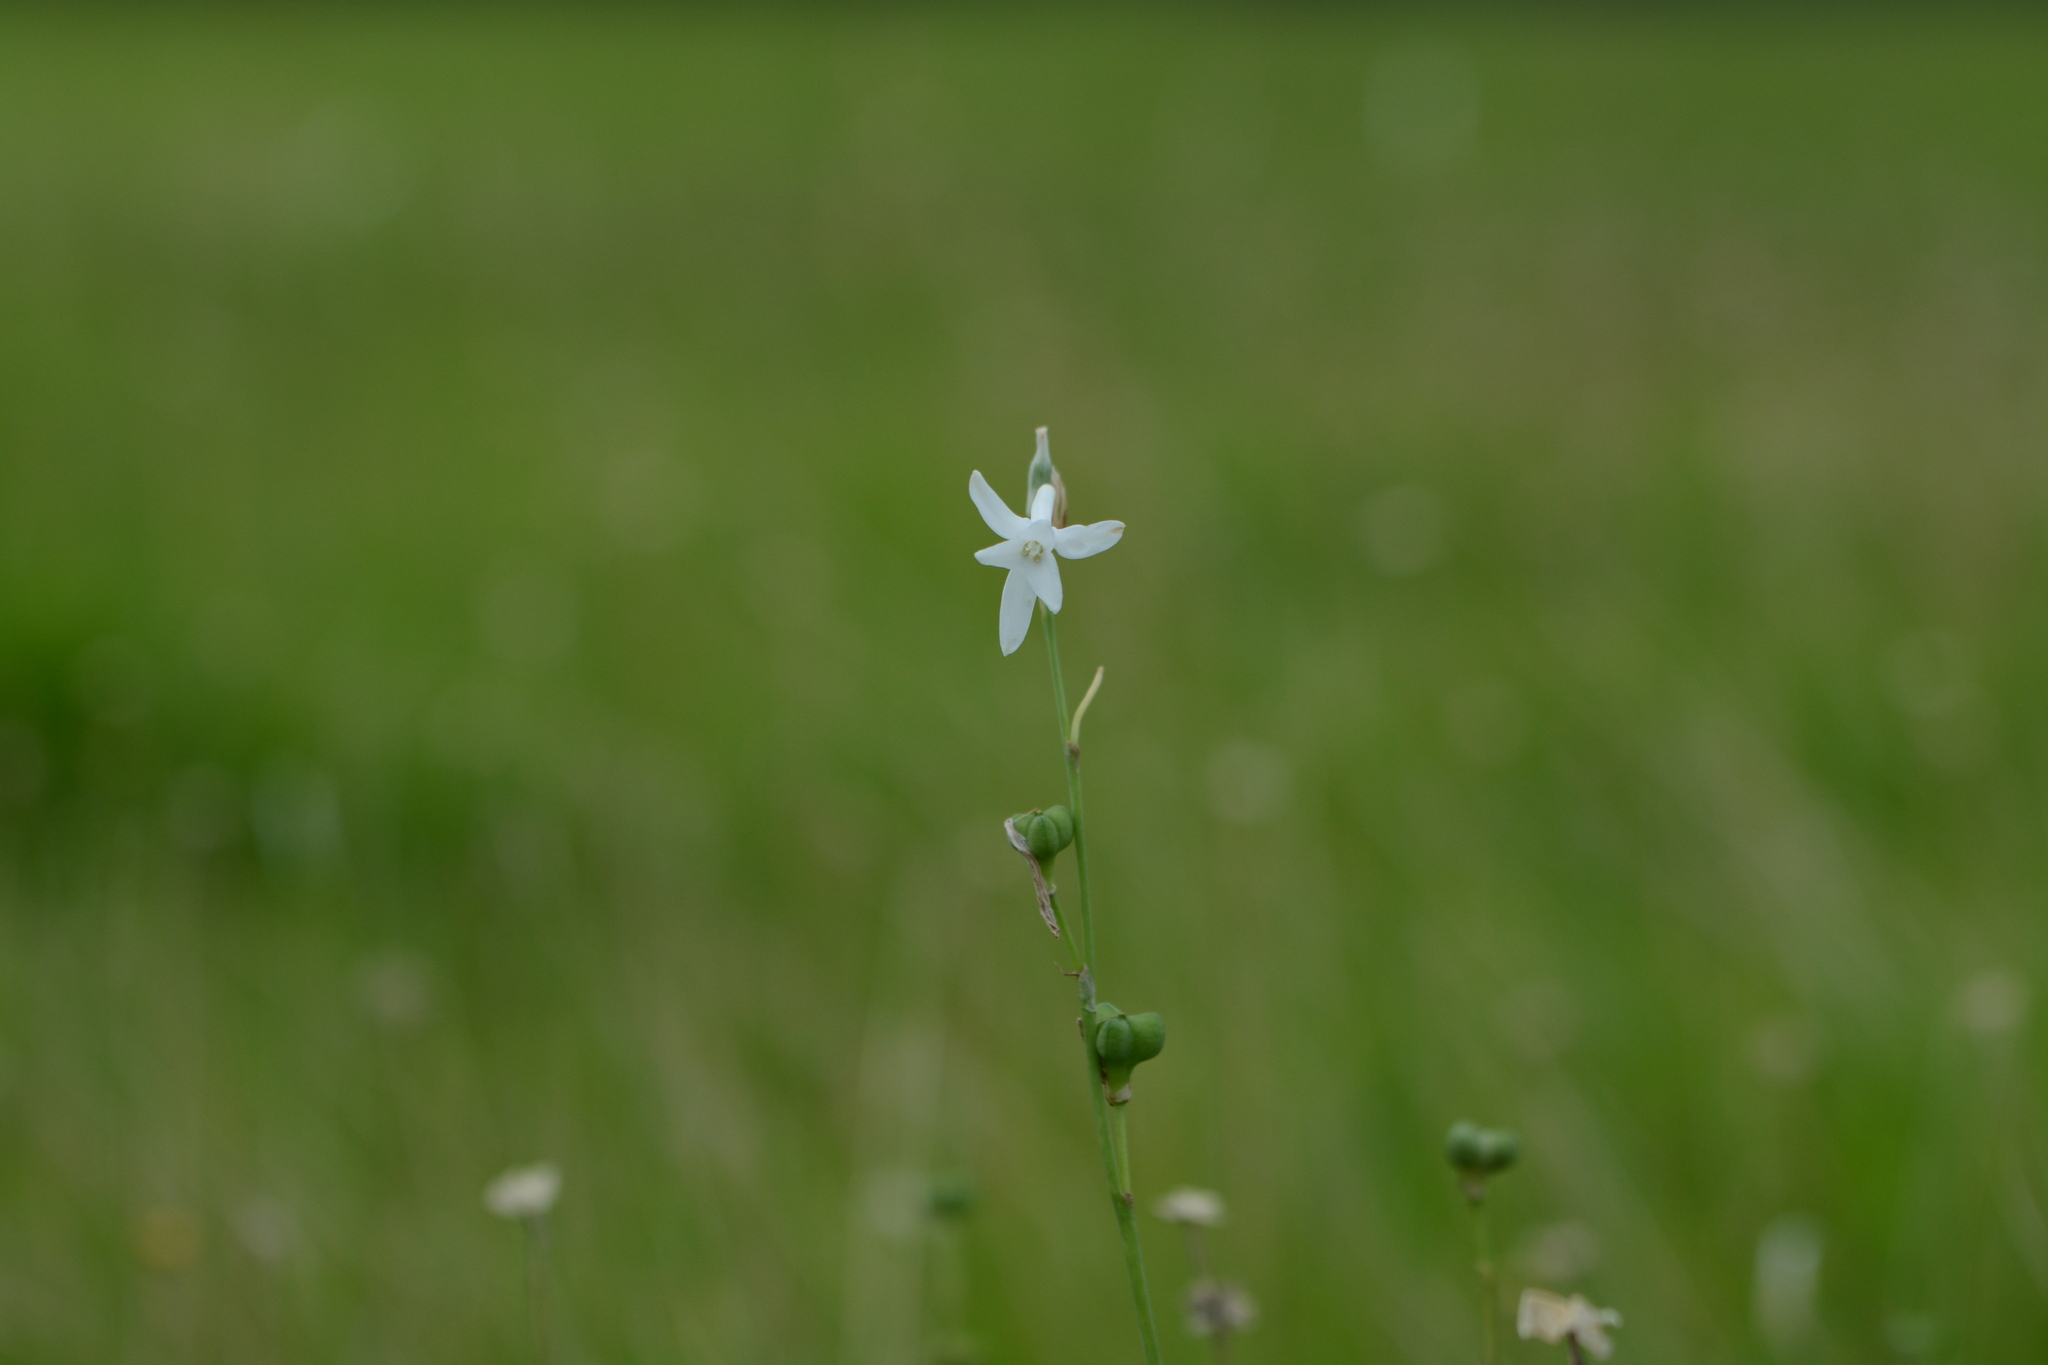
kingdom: Plantae
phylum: Tracheophyta
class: Liliopsida
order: Asparagales
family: Asparagaceae
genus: Dipcadi
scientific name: Dipcadi concanense
